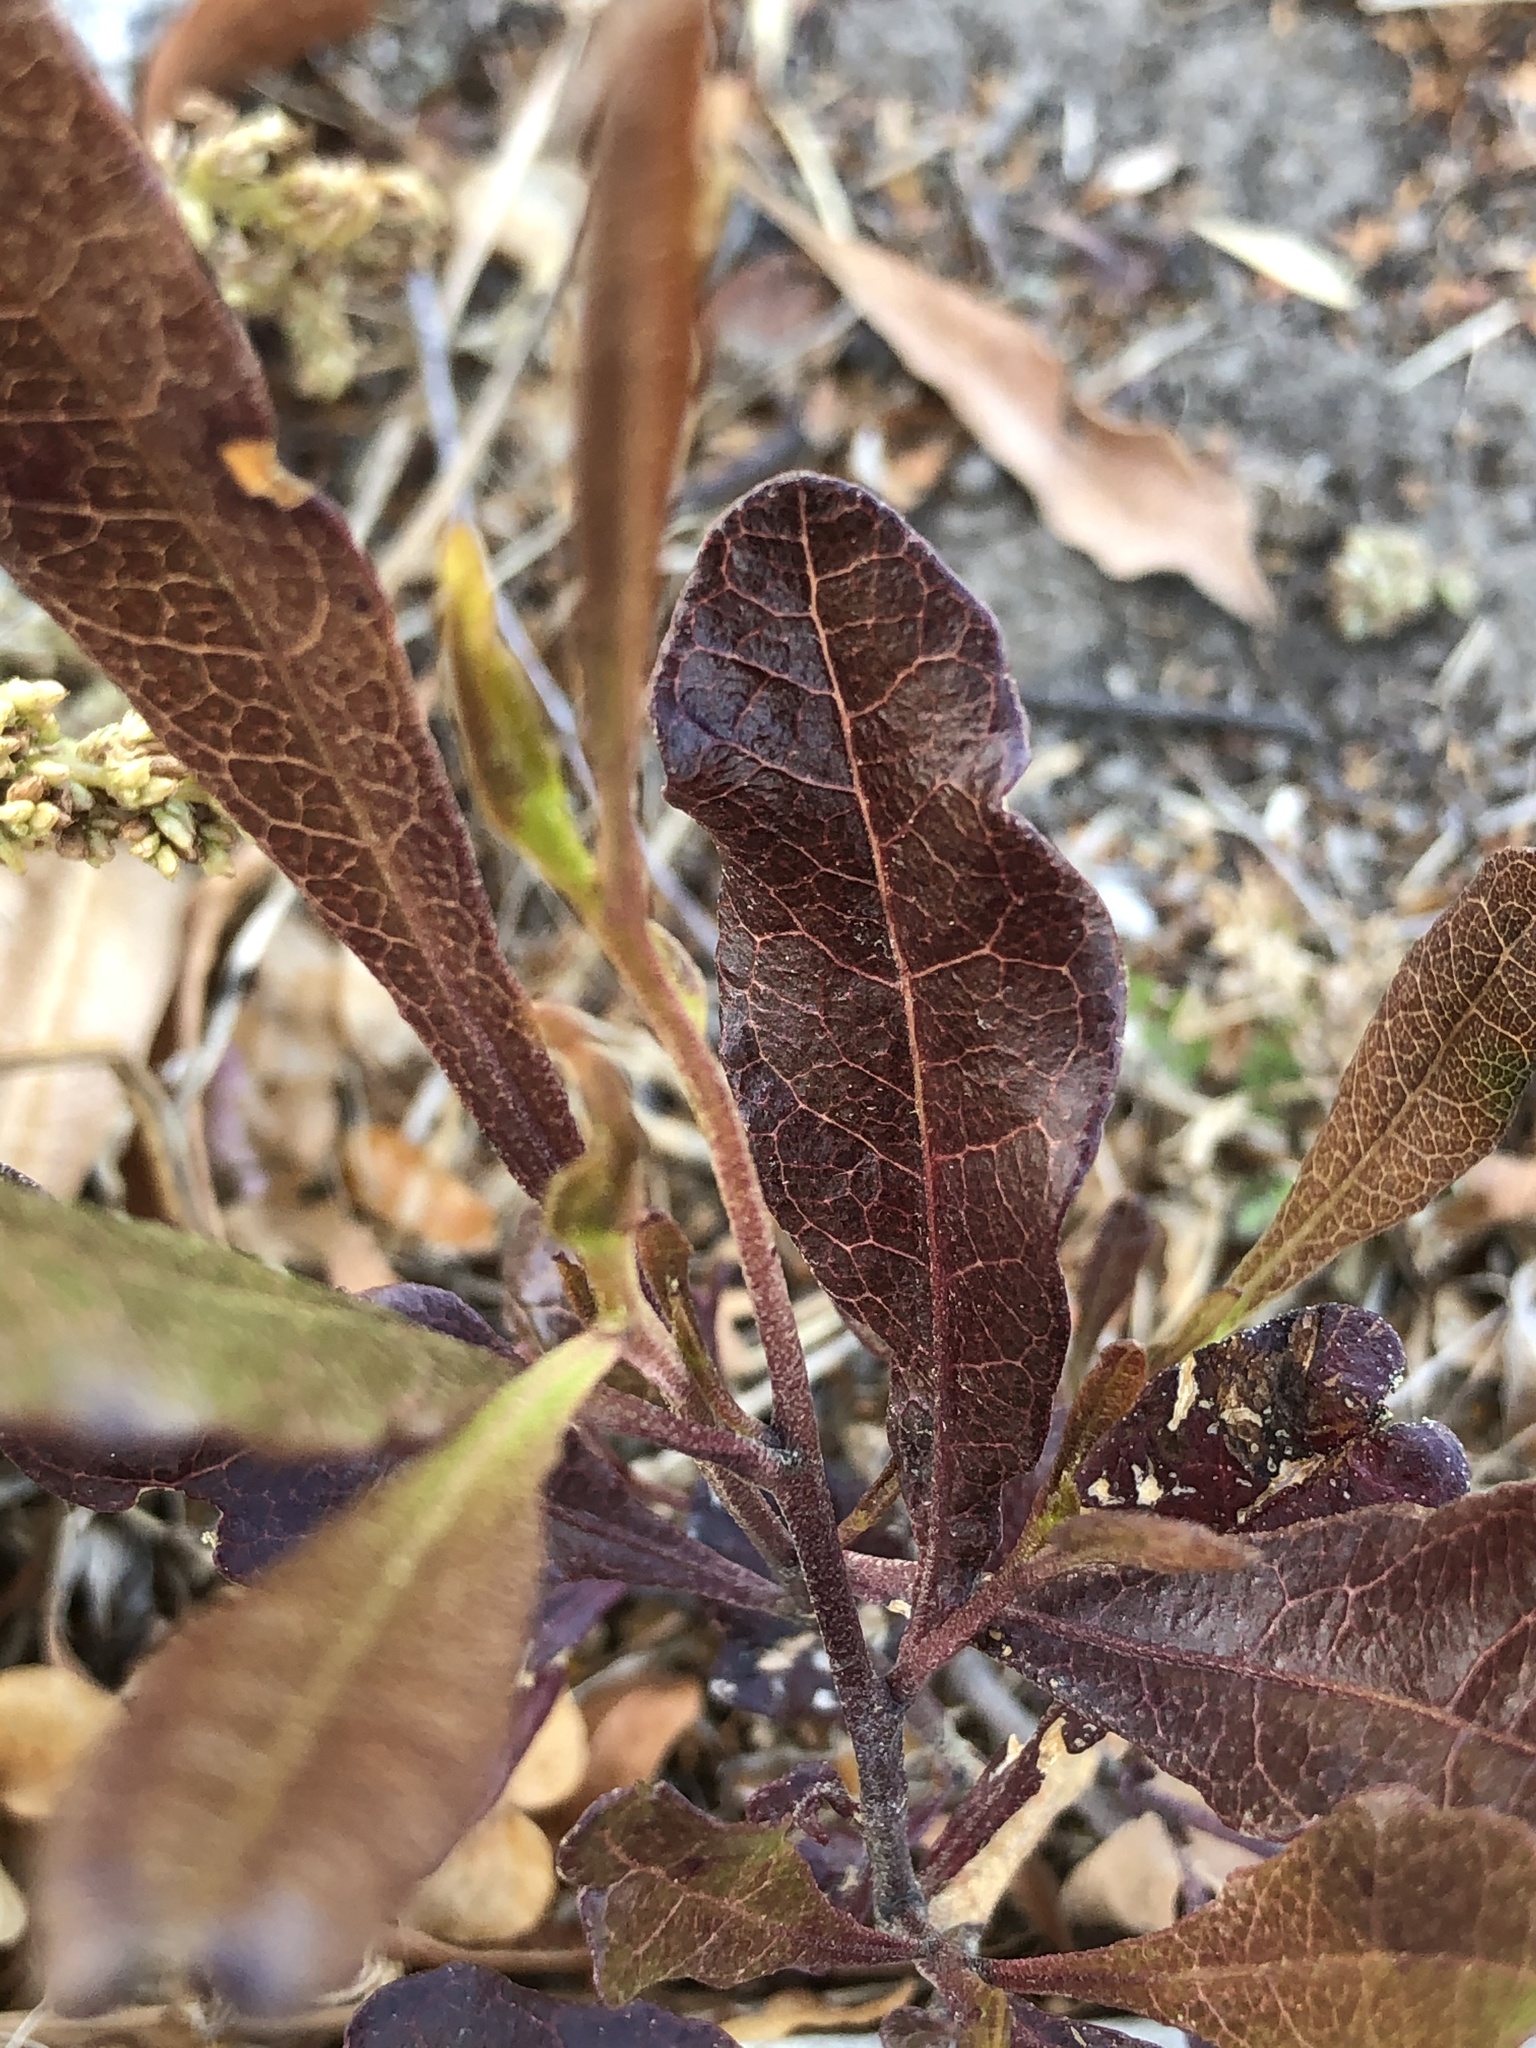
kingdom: Plantae
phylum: Tracheophyta
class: Magnoliopsida
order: Sapindales
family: Sapindaceae
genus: Dodonaea
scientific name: Dodonaea viscosa
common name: Hopbush
